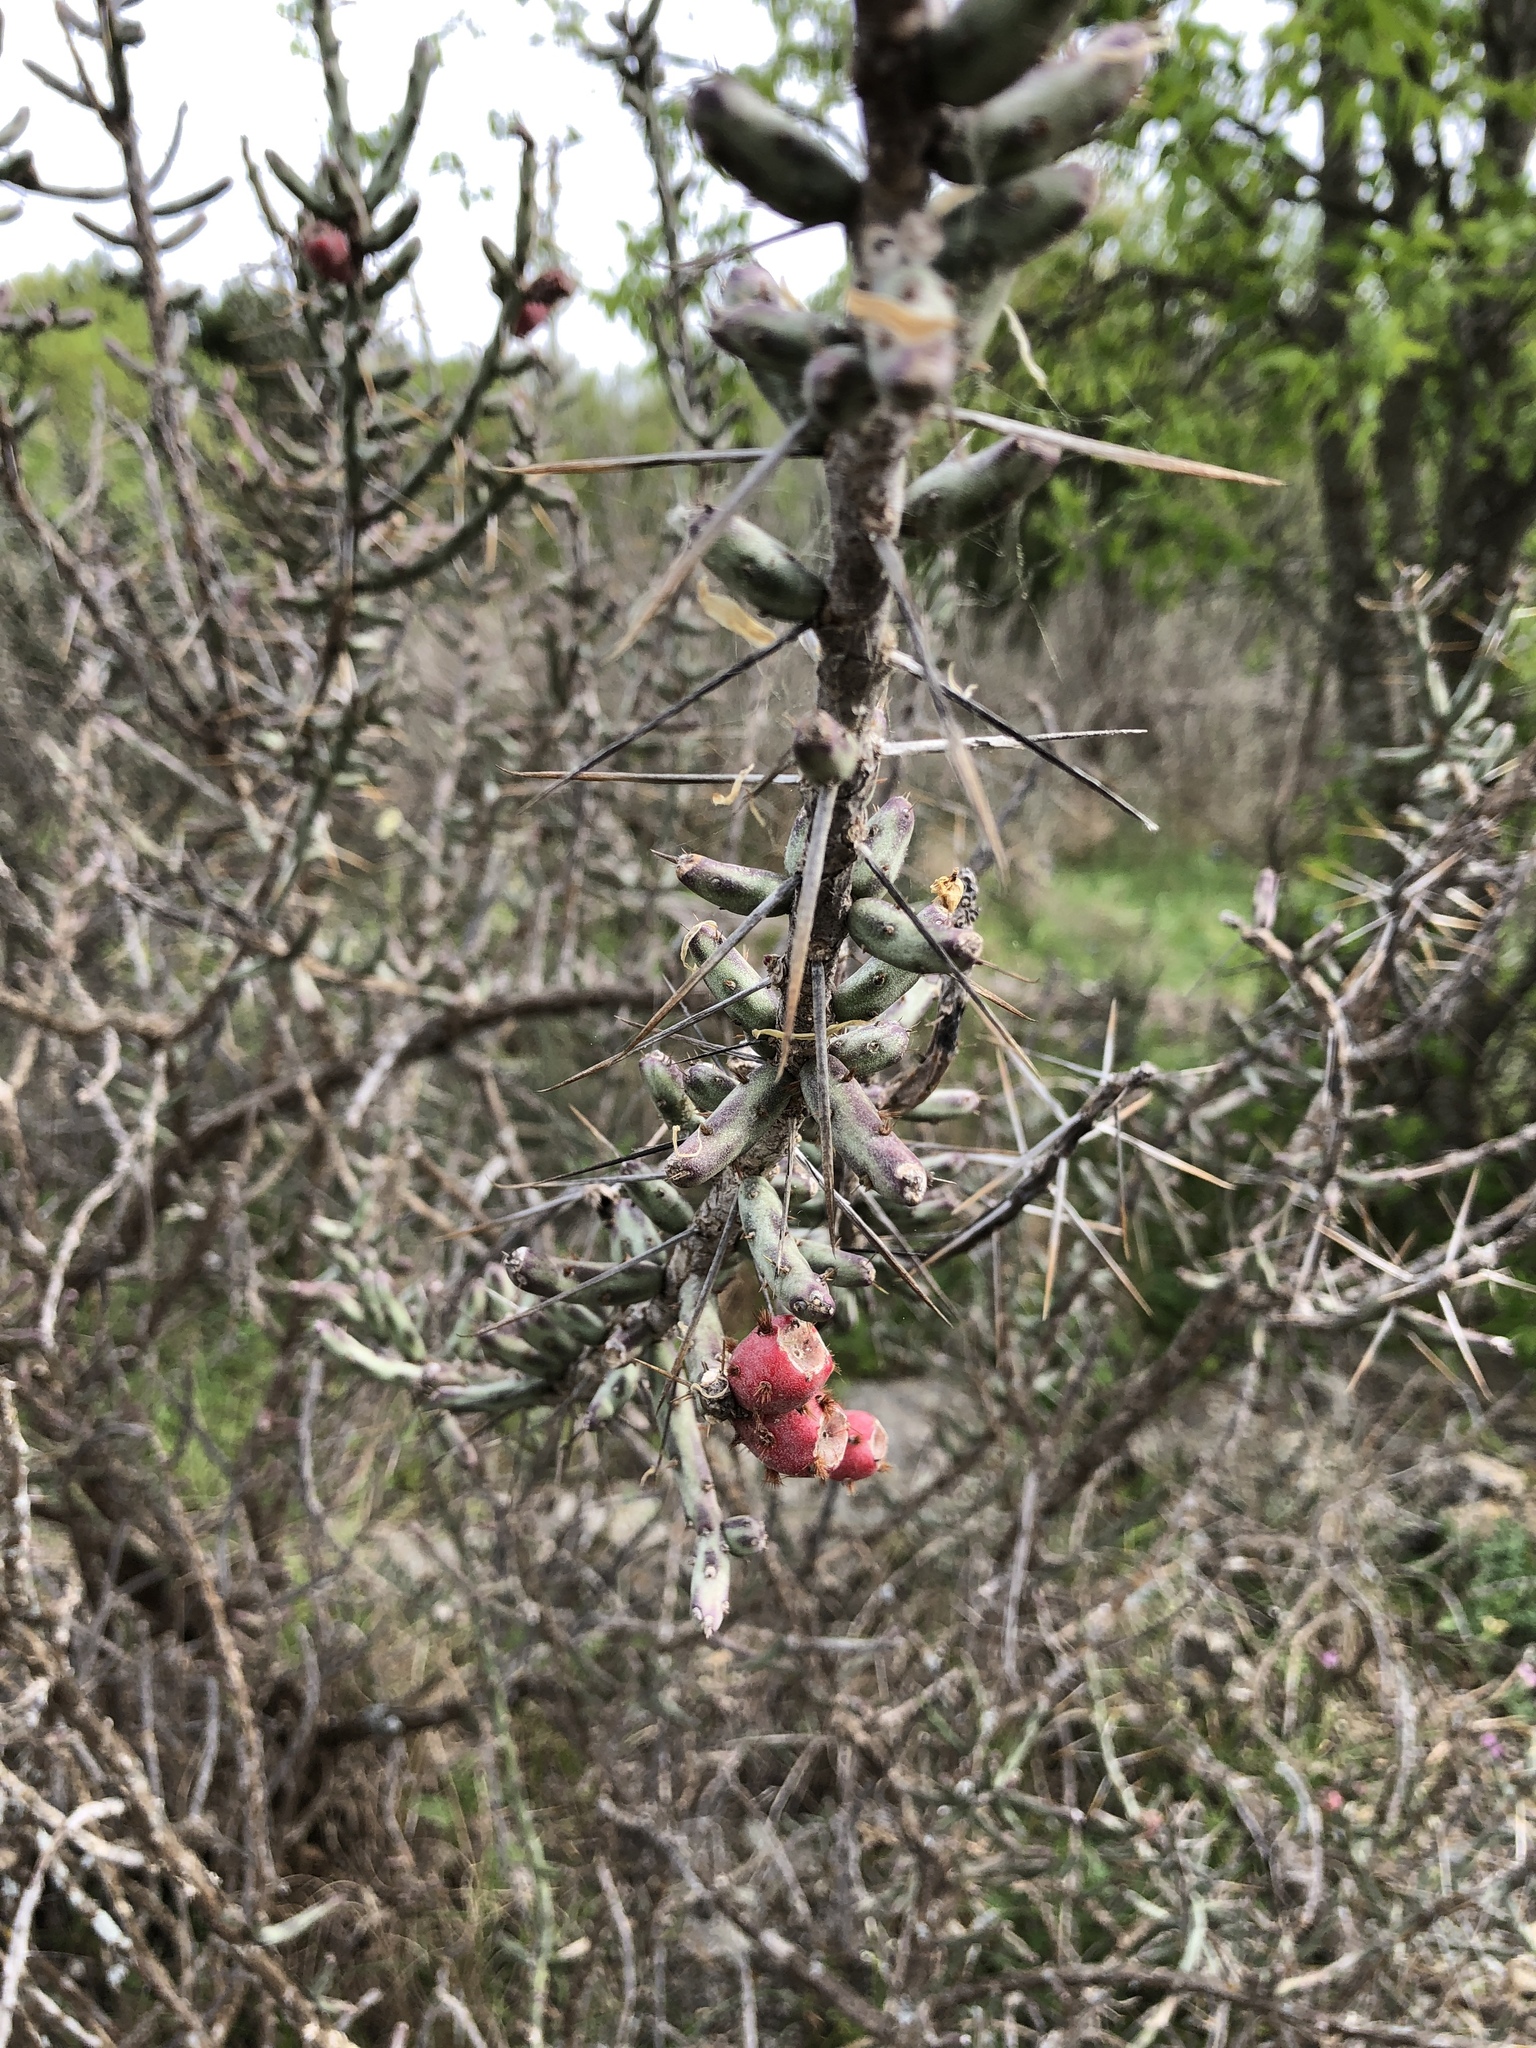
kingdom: Plantae
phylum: Tracheophyta
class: Magnoliopsida
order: Caryophyllales
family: Cactaceae
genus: Cylindropuntia
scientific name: Cylindropuntia leptocaulis
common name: Christmas cactus
